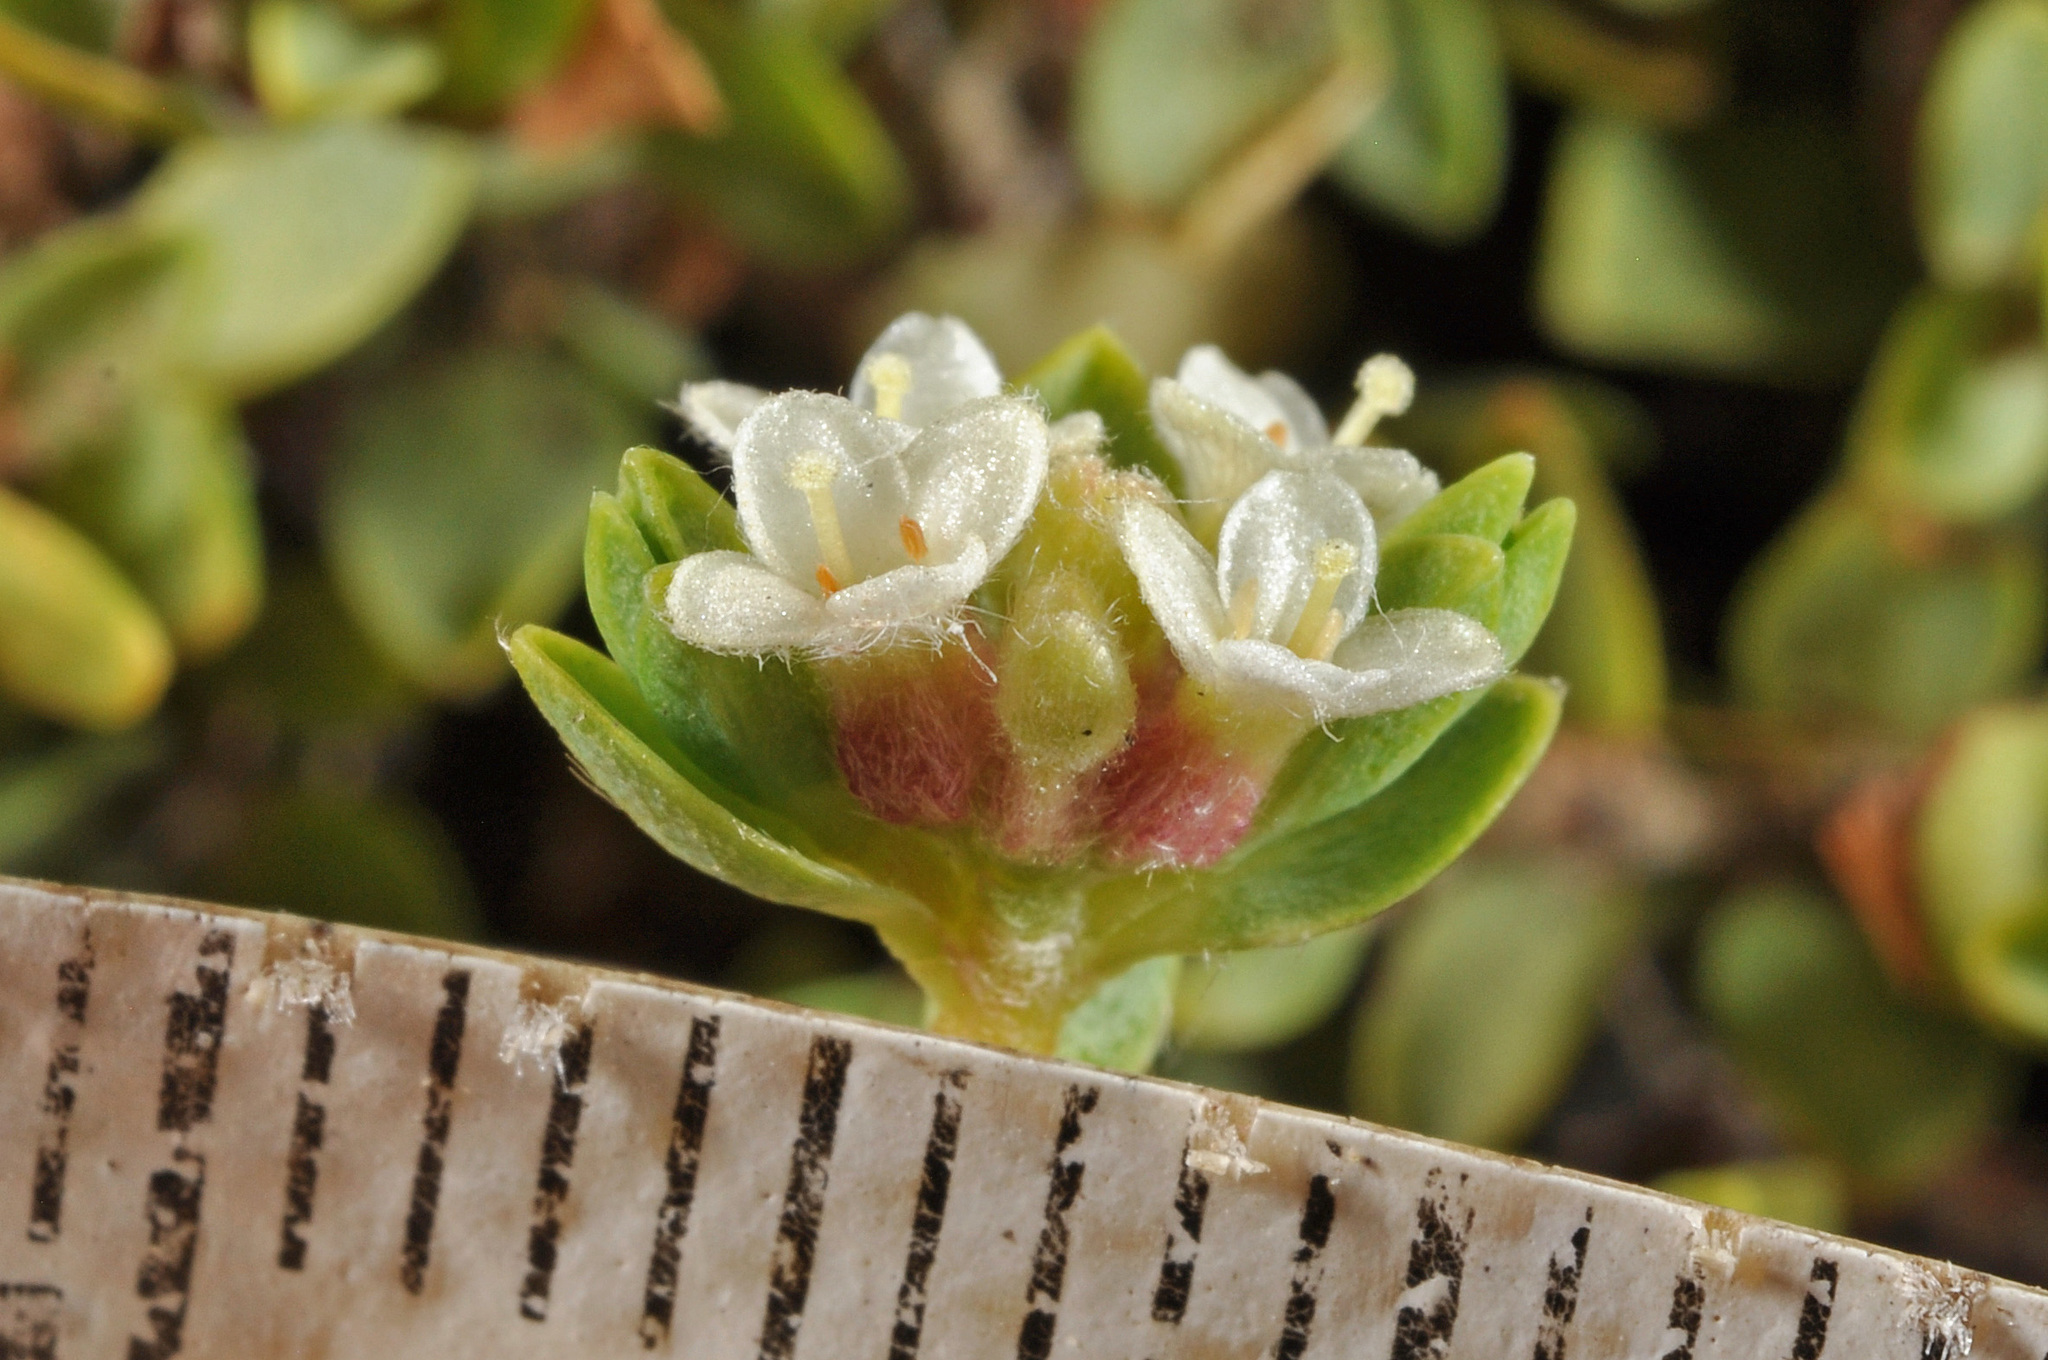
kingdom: Plantae
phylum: Tracheophyta
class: Magnoliopsida
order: Malvales
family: Thymelaeaceae
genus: Pimelea
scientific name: Pimelea microphylla
